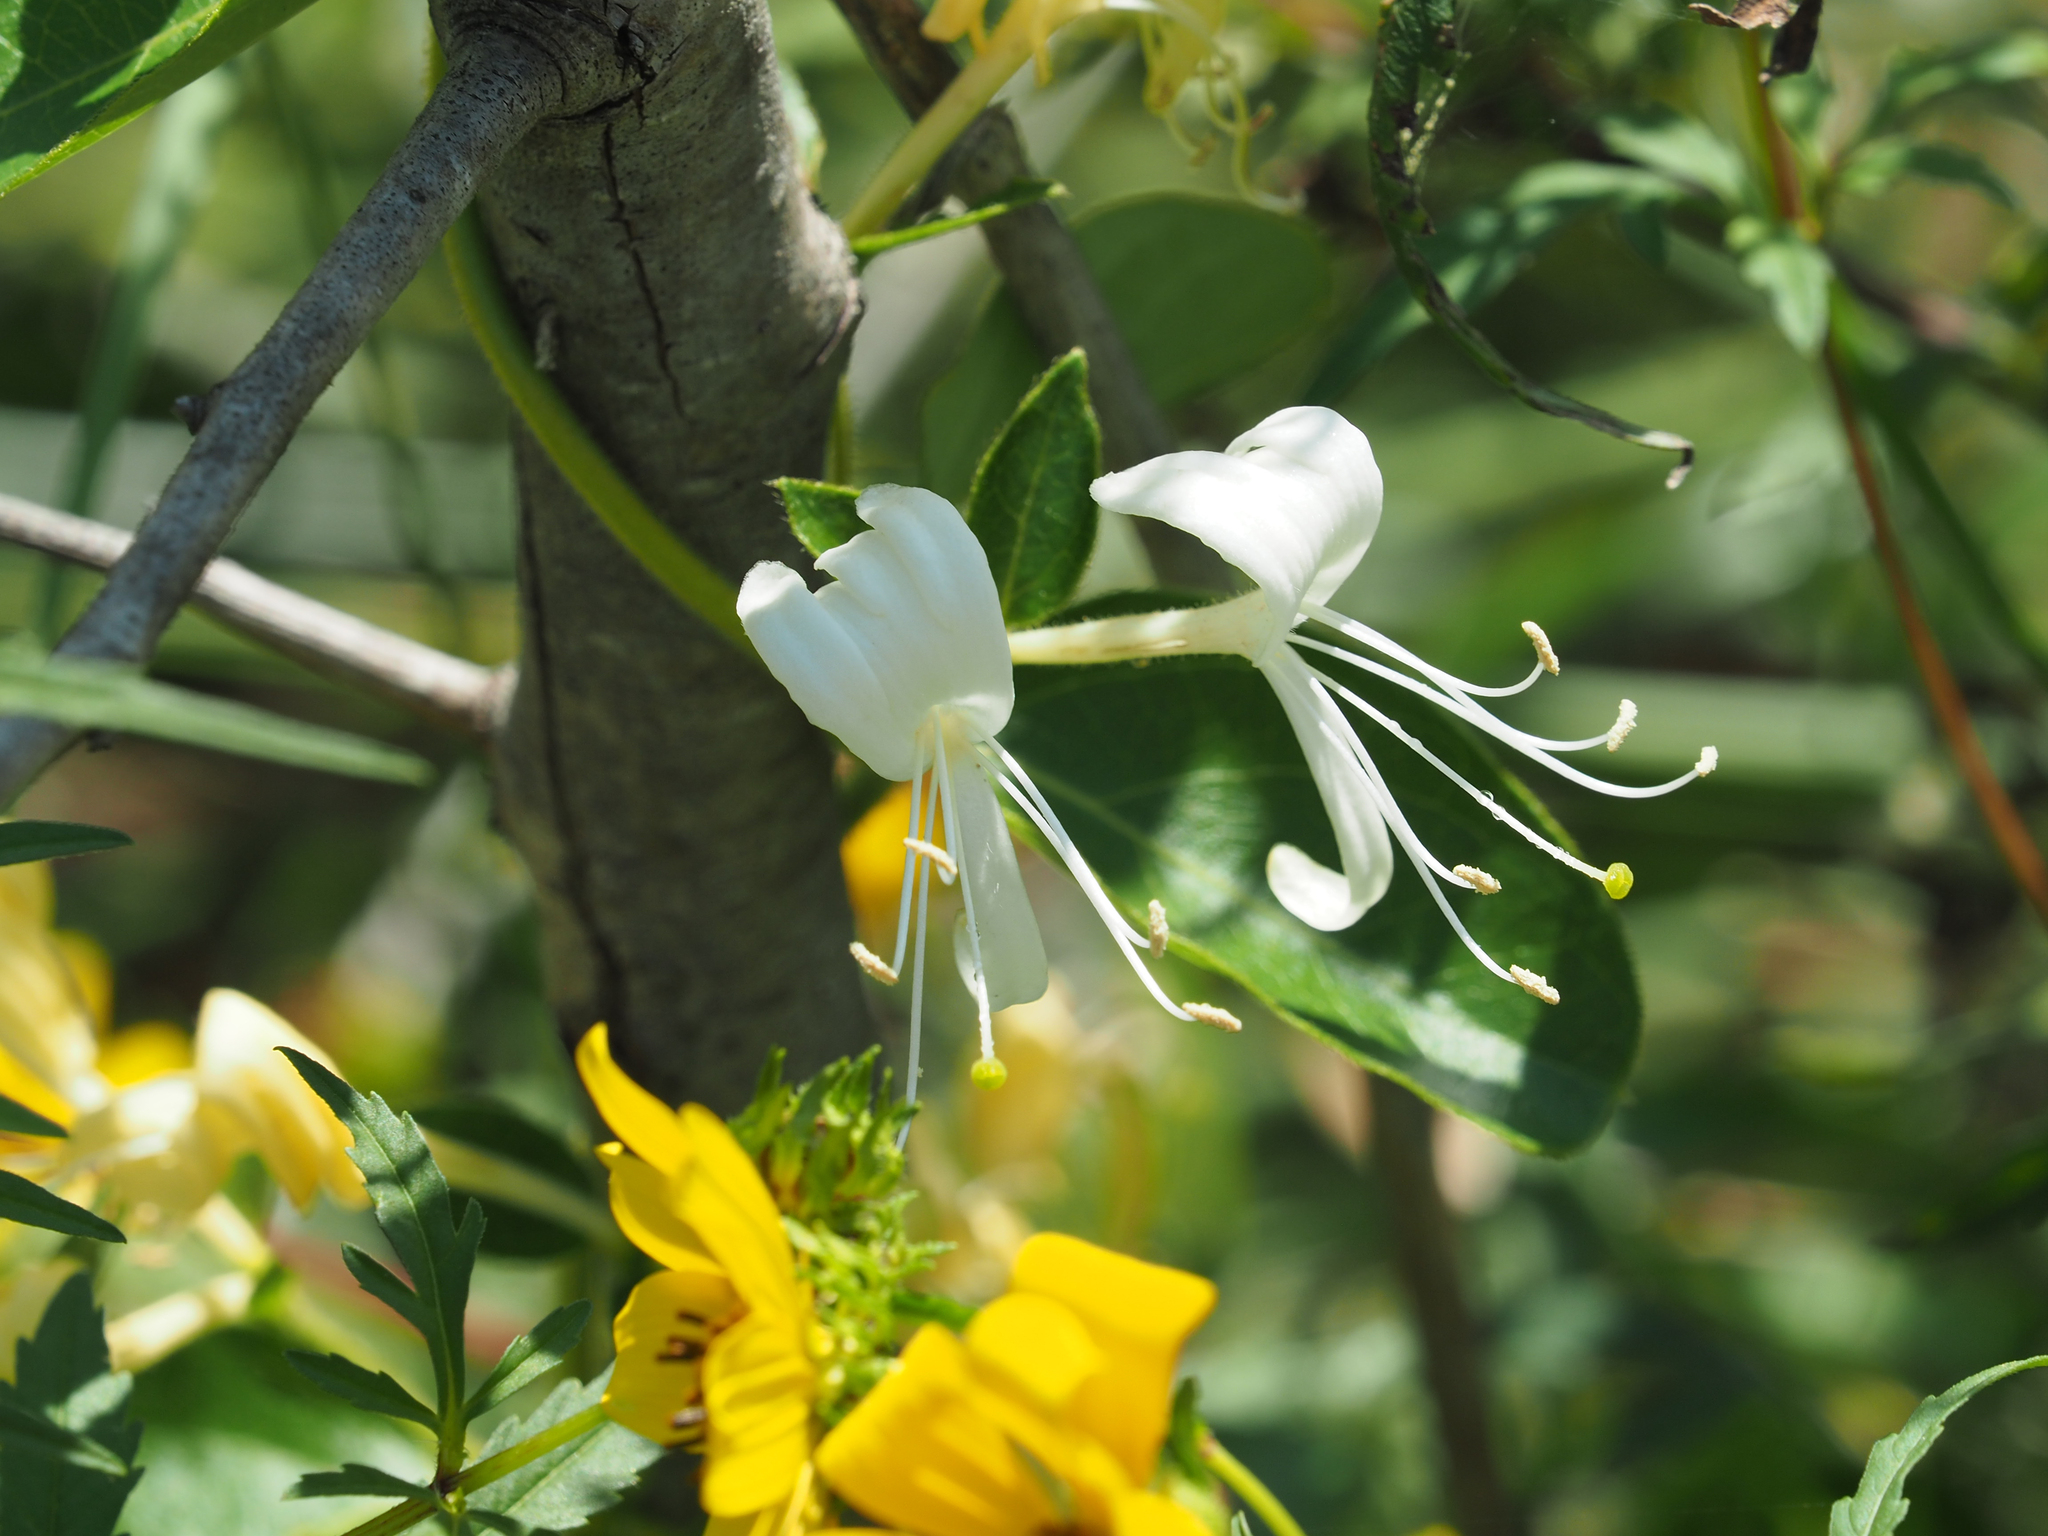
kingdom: Plantae
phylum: Tracheophyta
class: Magnoliopsida
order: Dipsacales
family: Caprifoliaceae
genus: Lonicera
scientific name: Lonicera japonica
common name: Japanese honeysuckle
